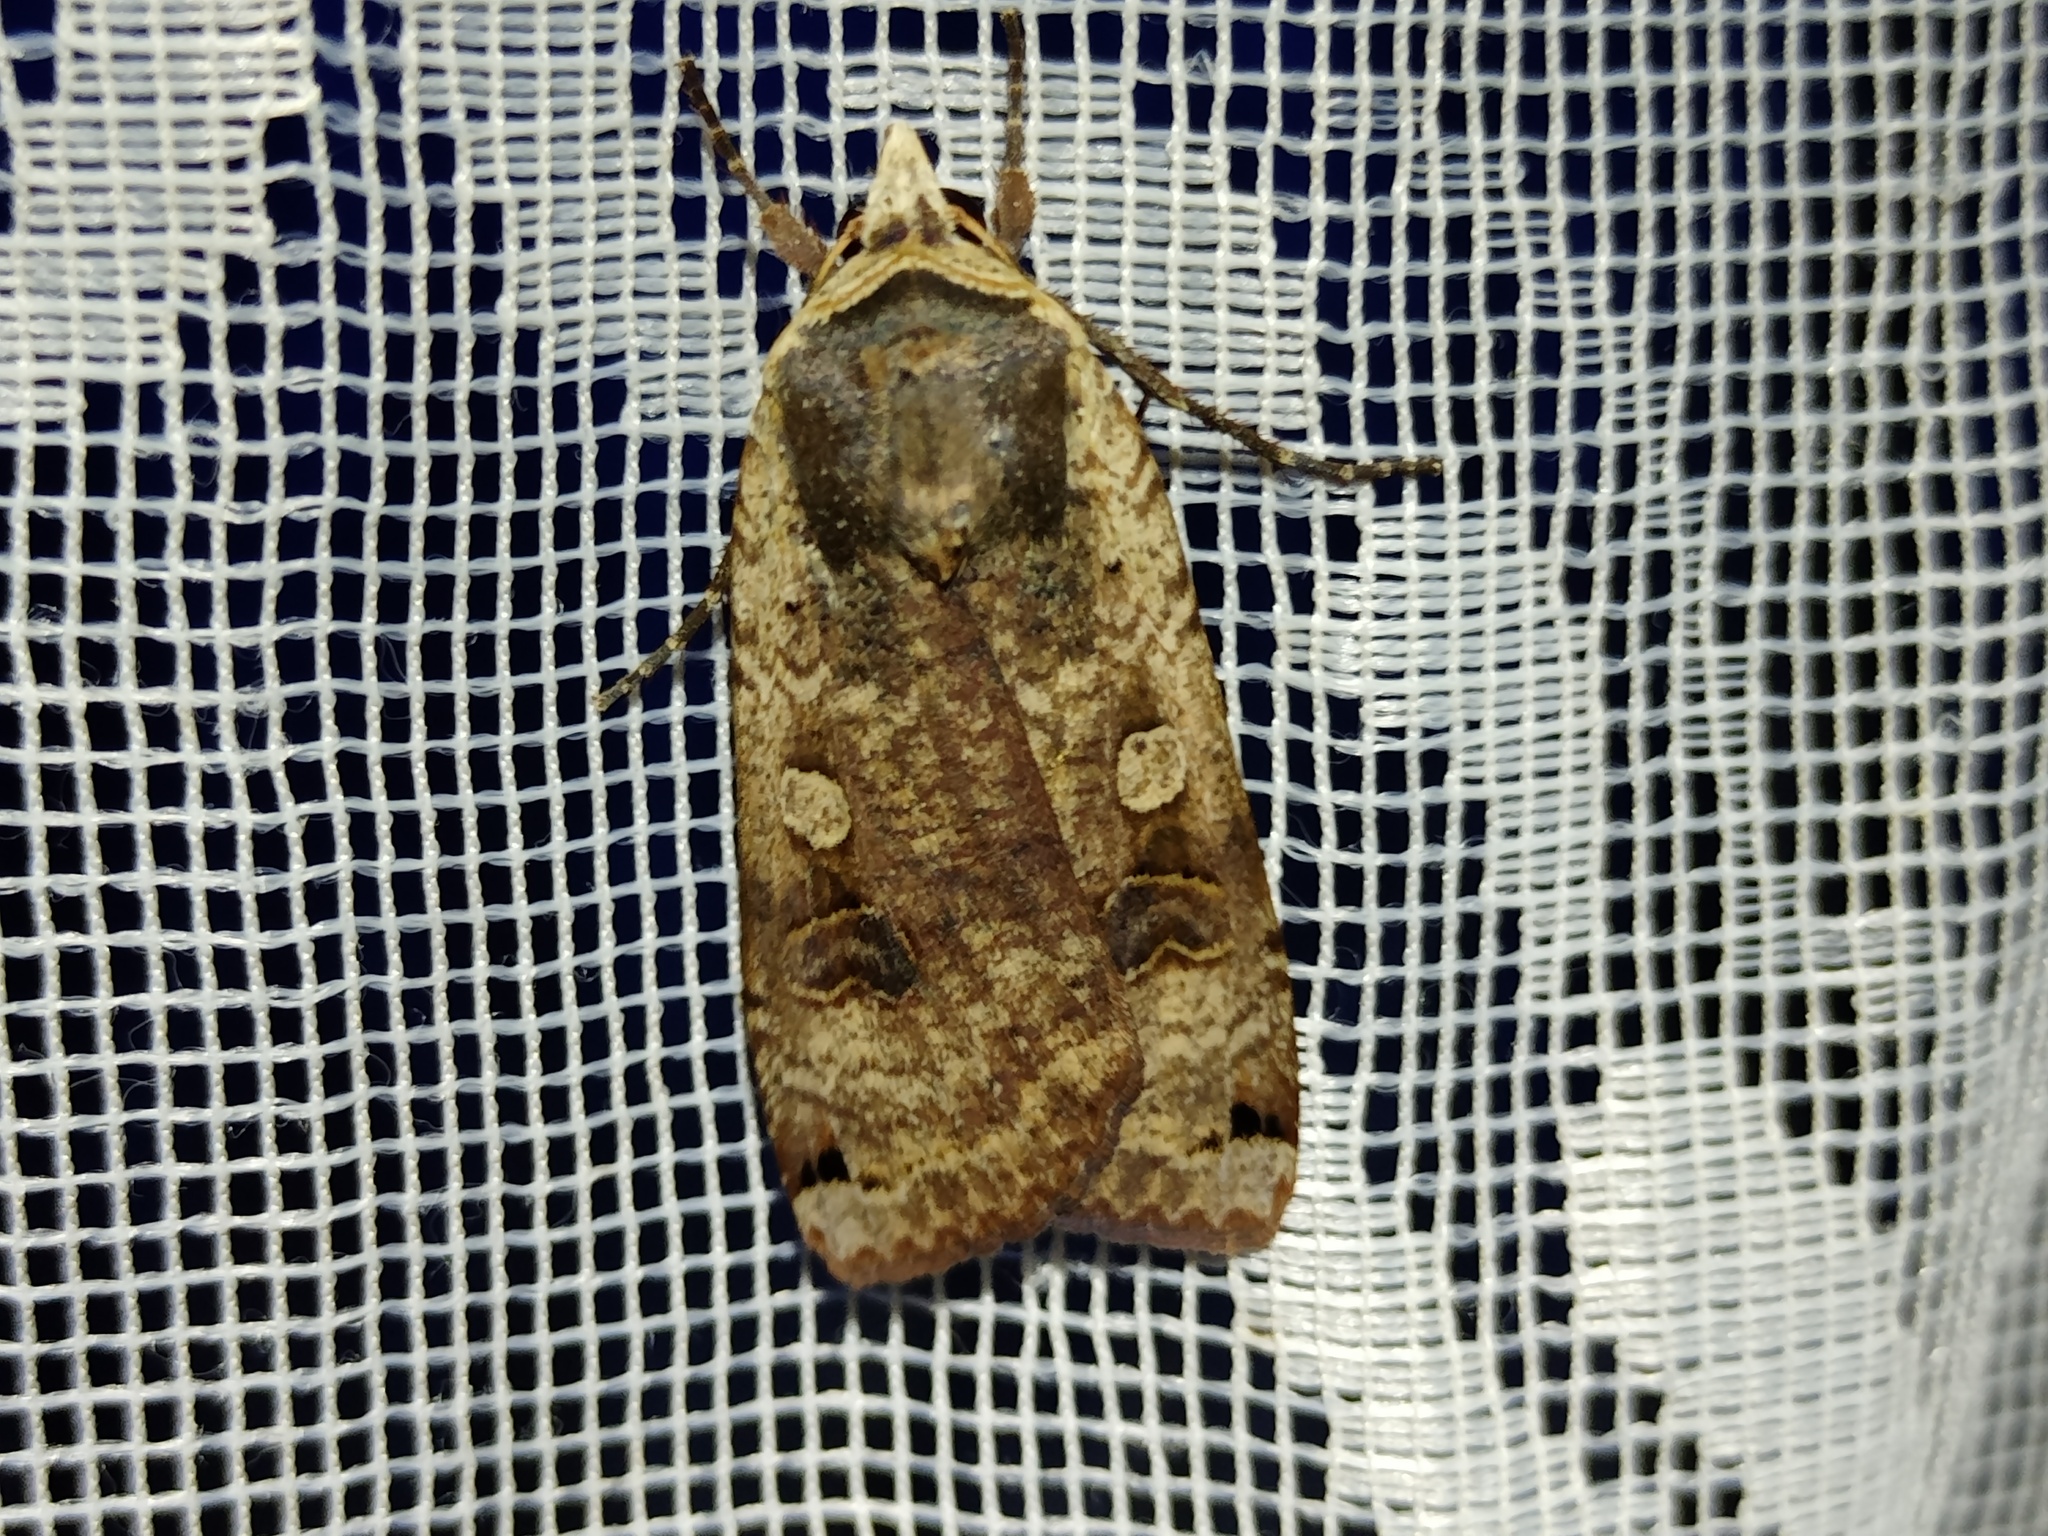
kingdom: Animalia
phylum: Arthropoda
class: Insecta
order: Lepidoptera
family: Noctuidae
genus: Noctua
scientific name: Noctua pronuba
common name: Large yellow underwing
